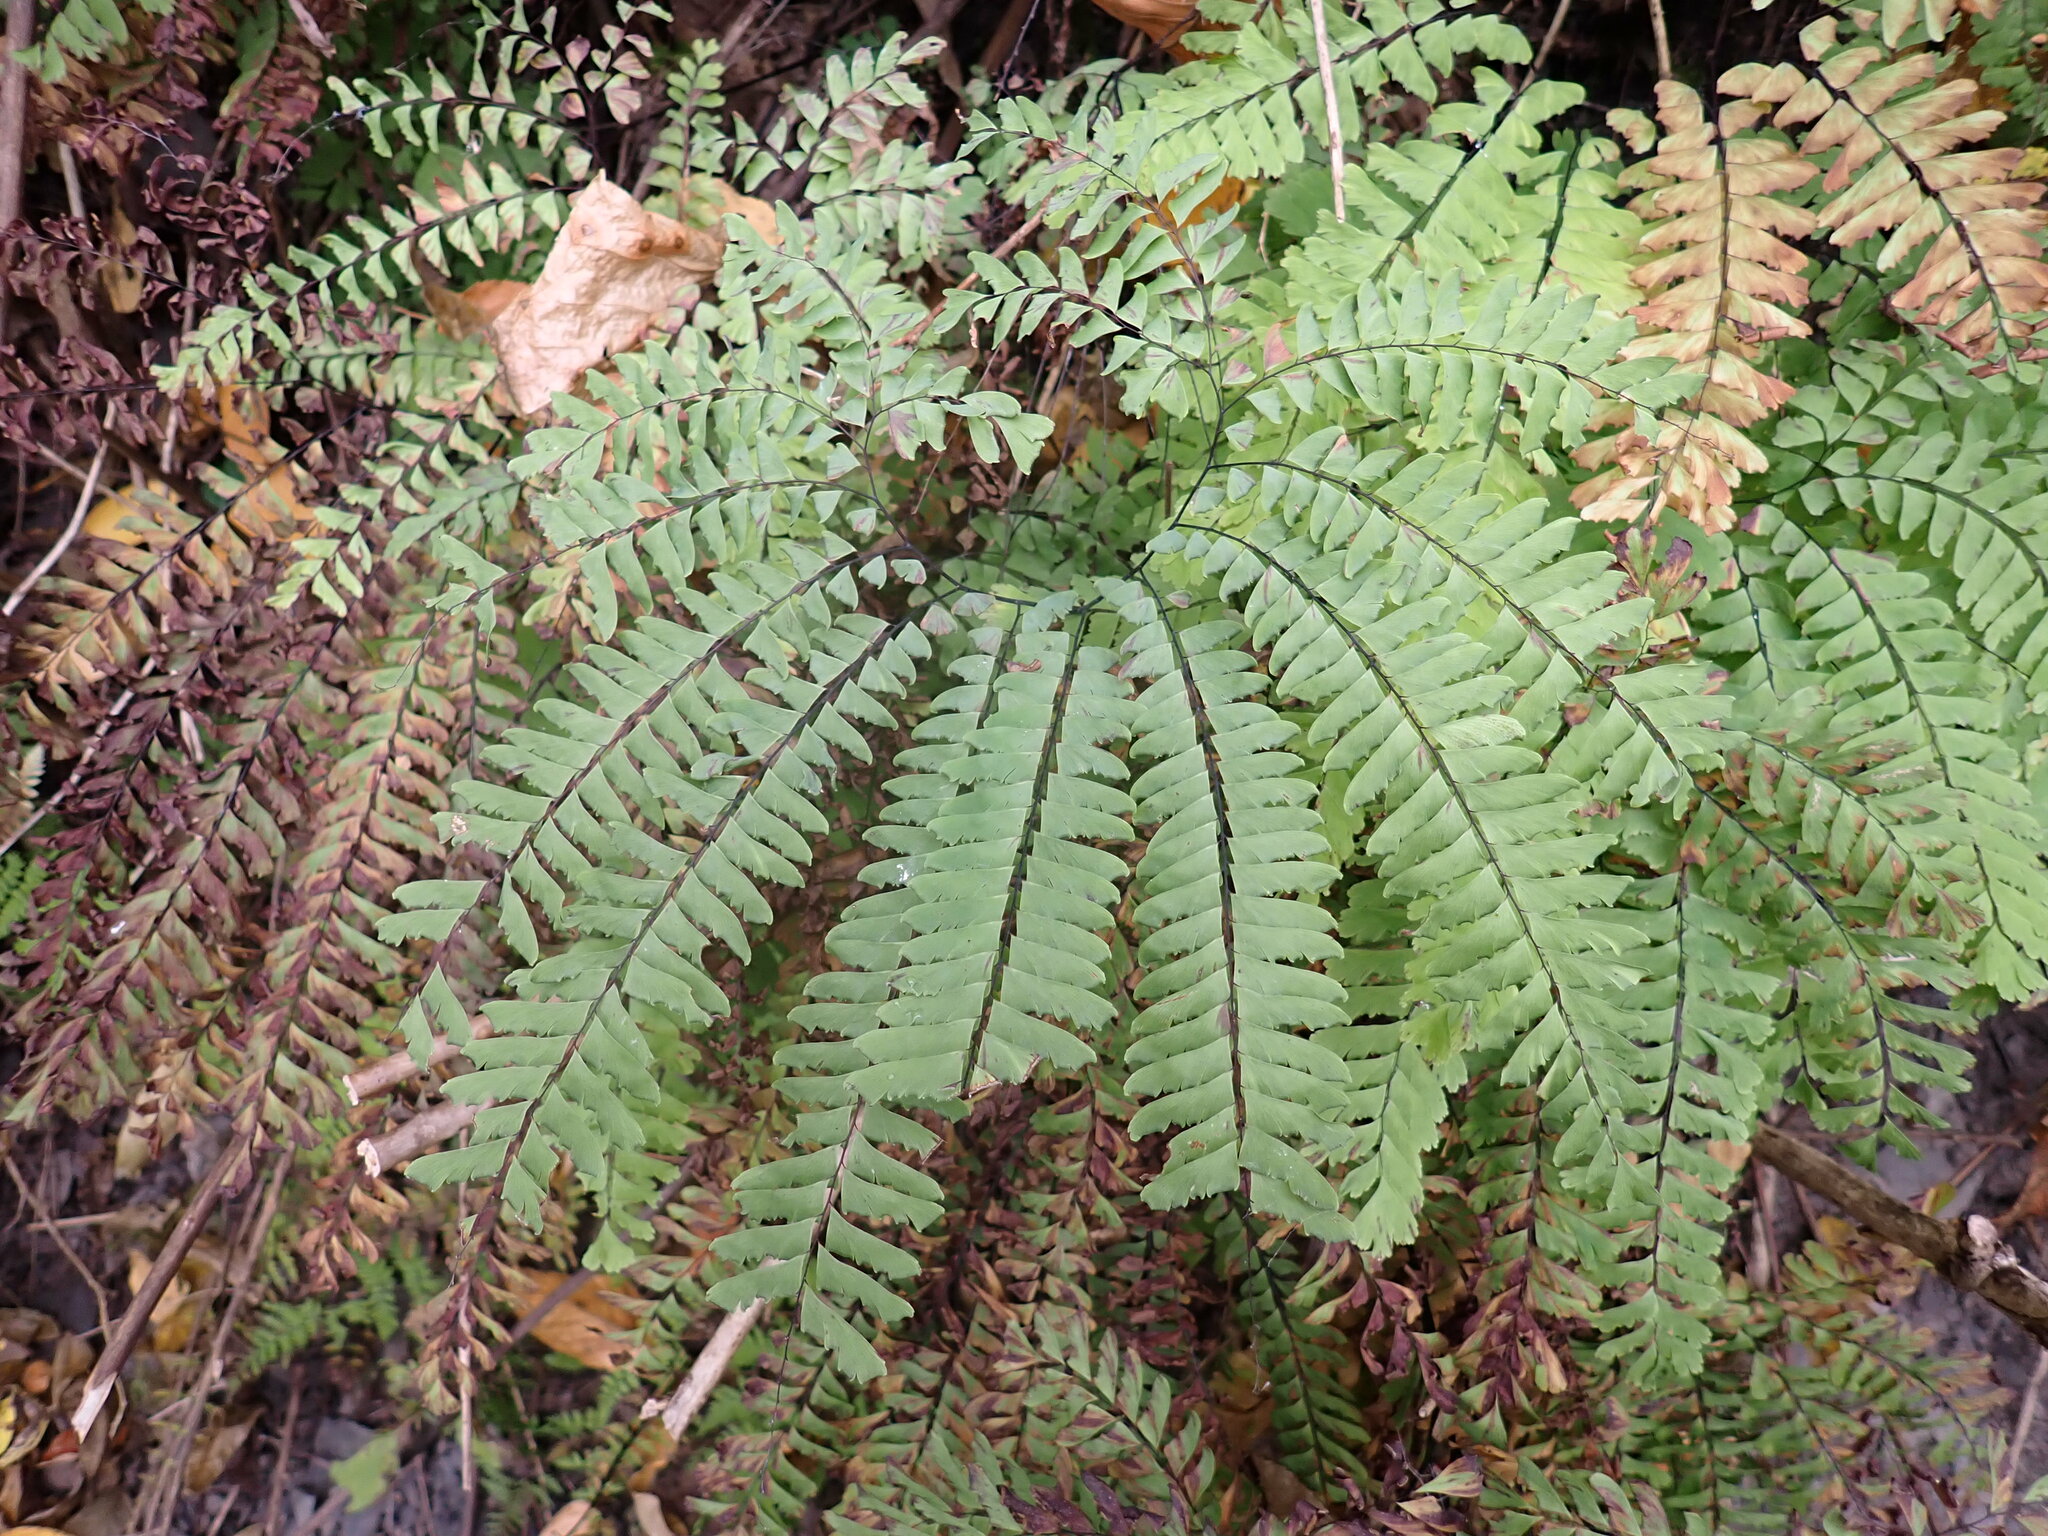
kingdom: Plantae
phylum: Tracheophyta
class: Polypodiopsida
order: Polypodiales
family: Pteridaceae
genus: Adiantum
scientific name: Adiantum pedatum
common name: Five-finger fern
